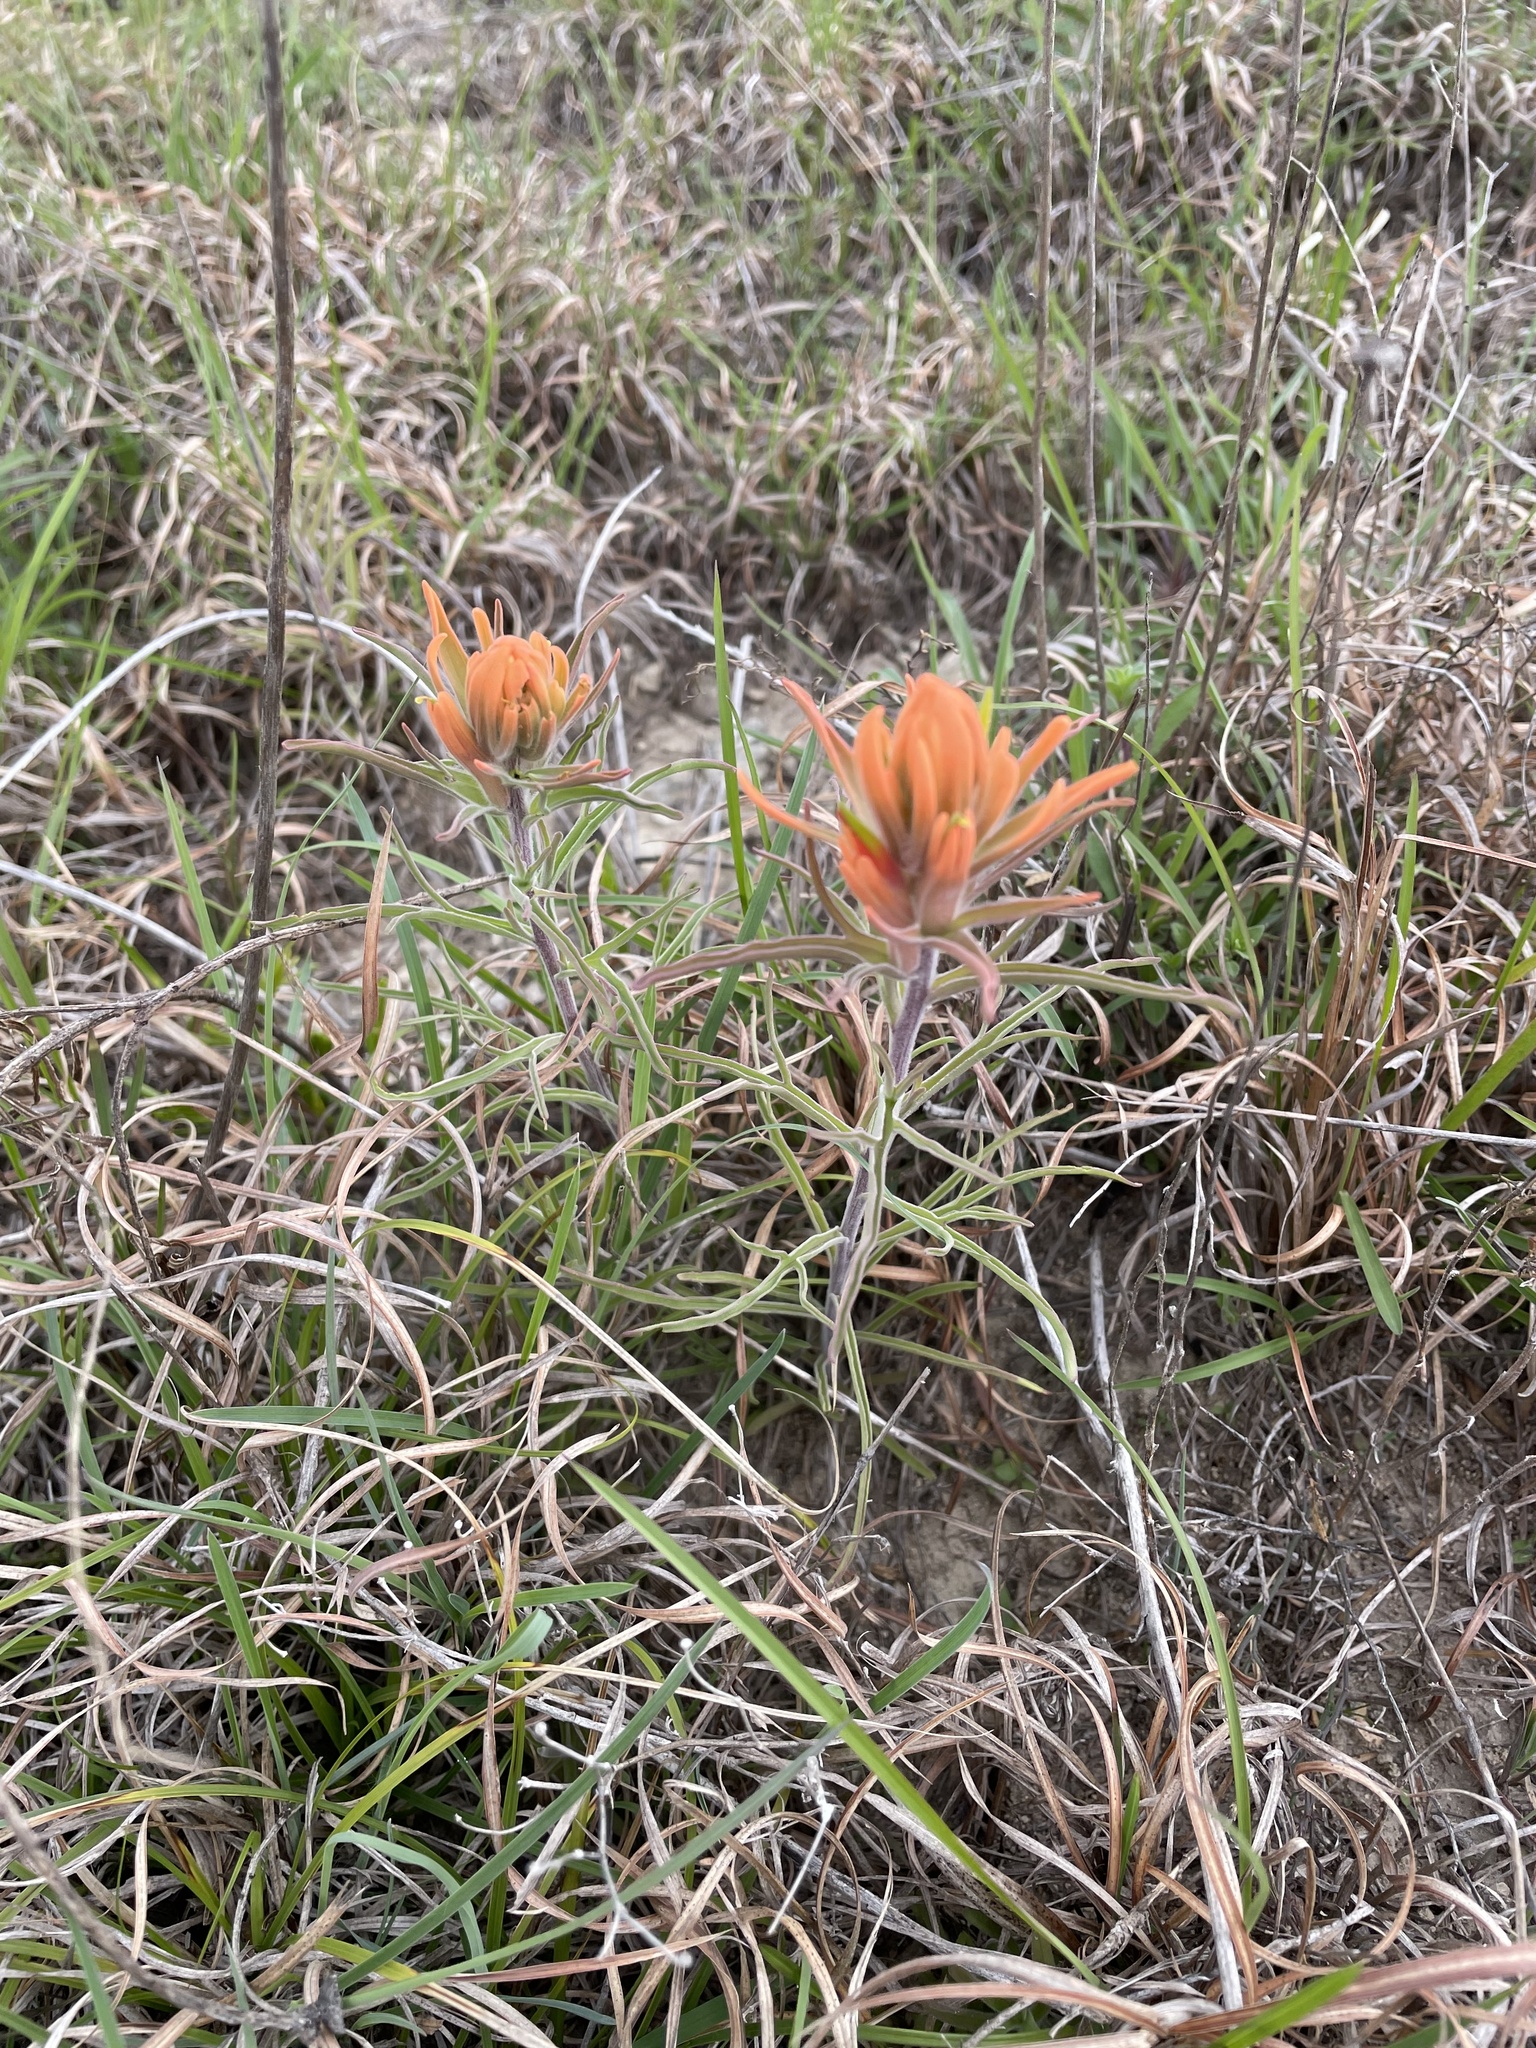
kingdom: Plantae
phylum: Tracheophyta
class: Magnoliopsida
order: Lamiales
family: Orobanchaceae
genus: Castilleja
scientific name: Castilleja lindheimeri
